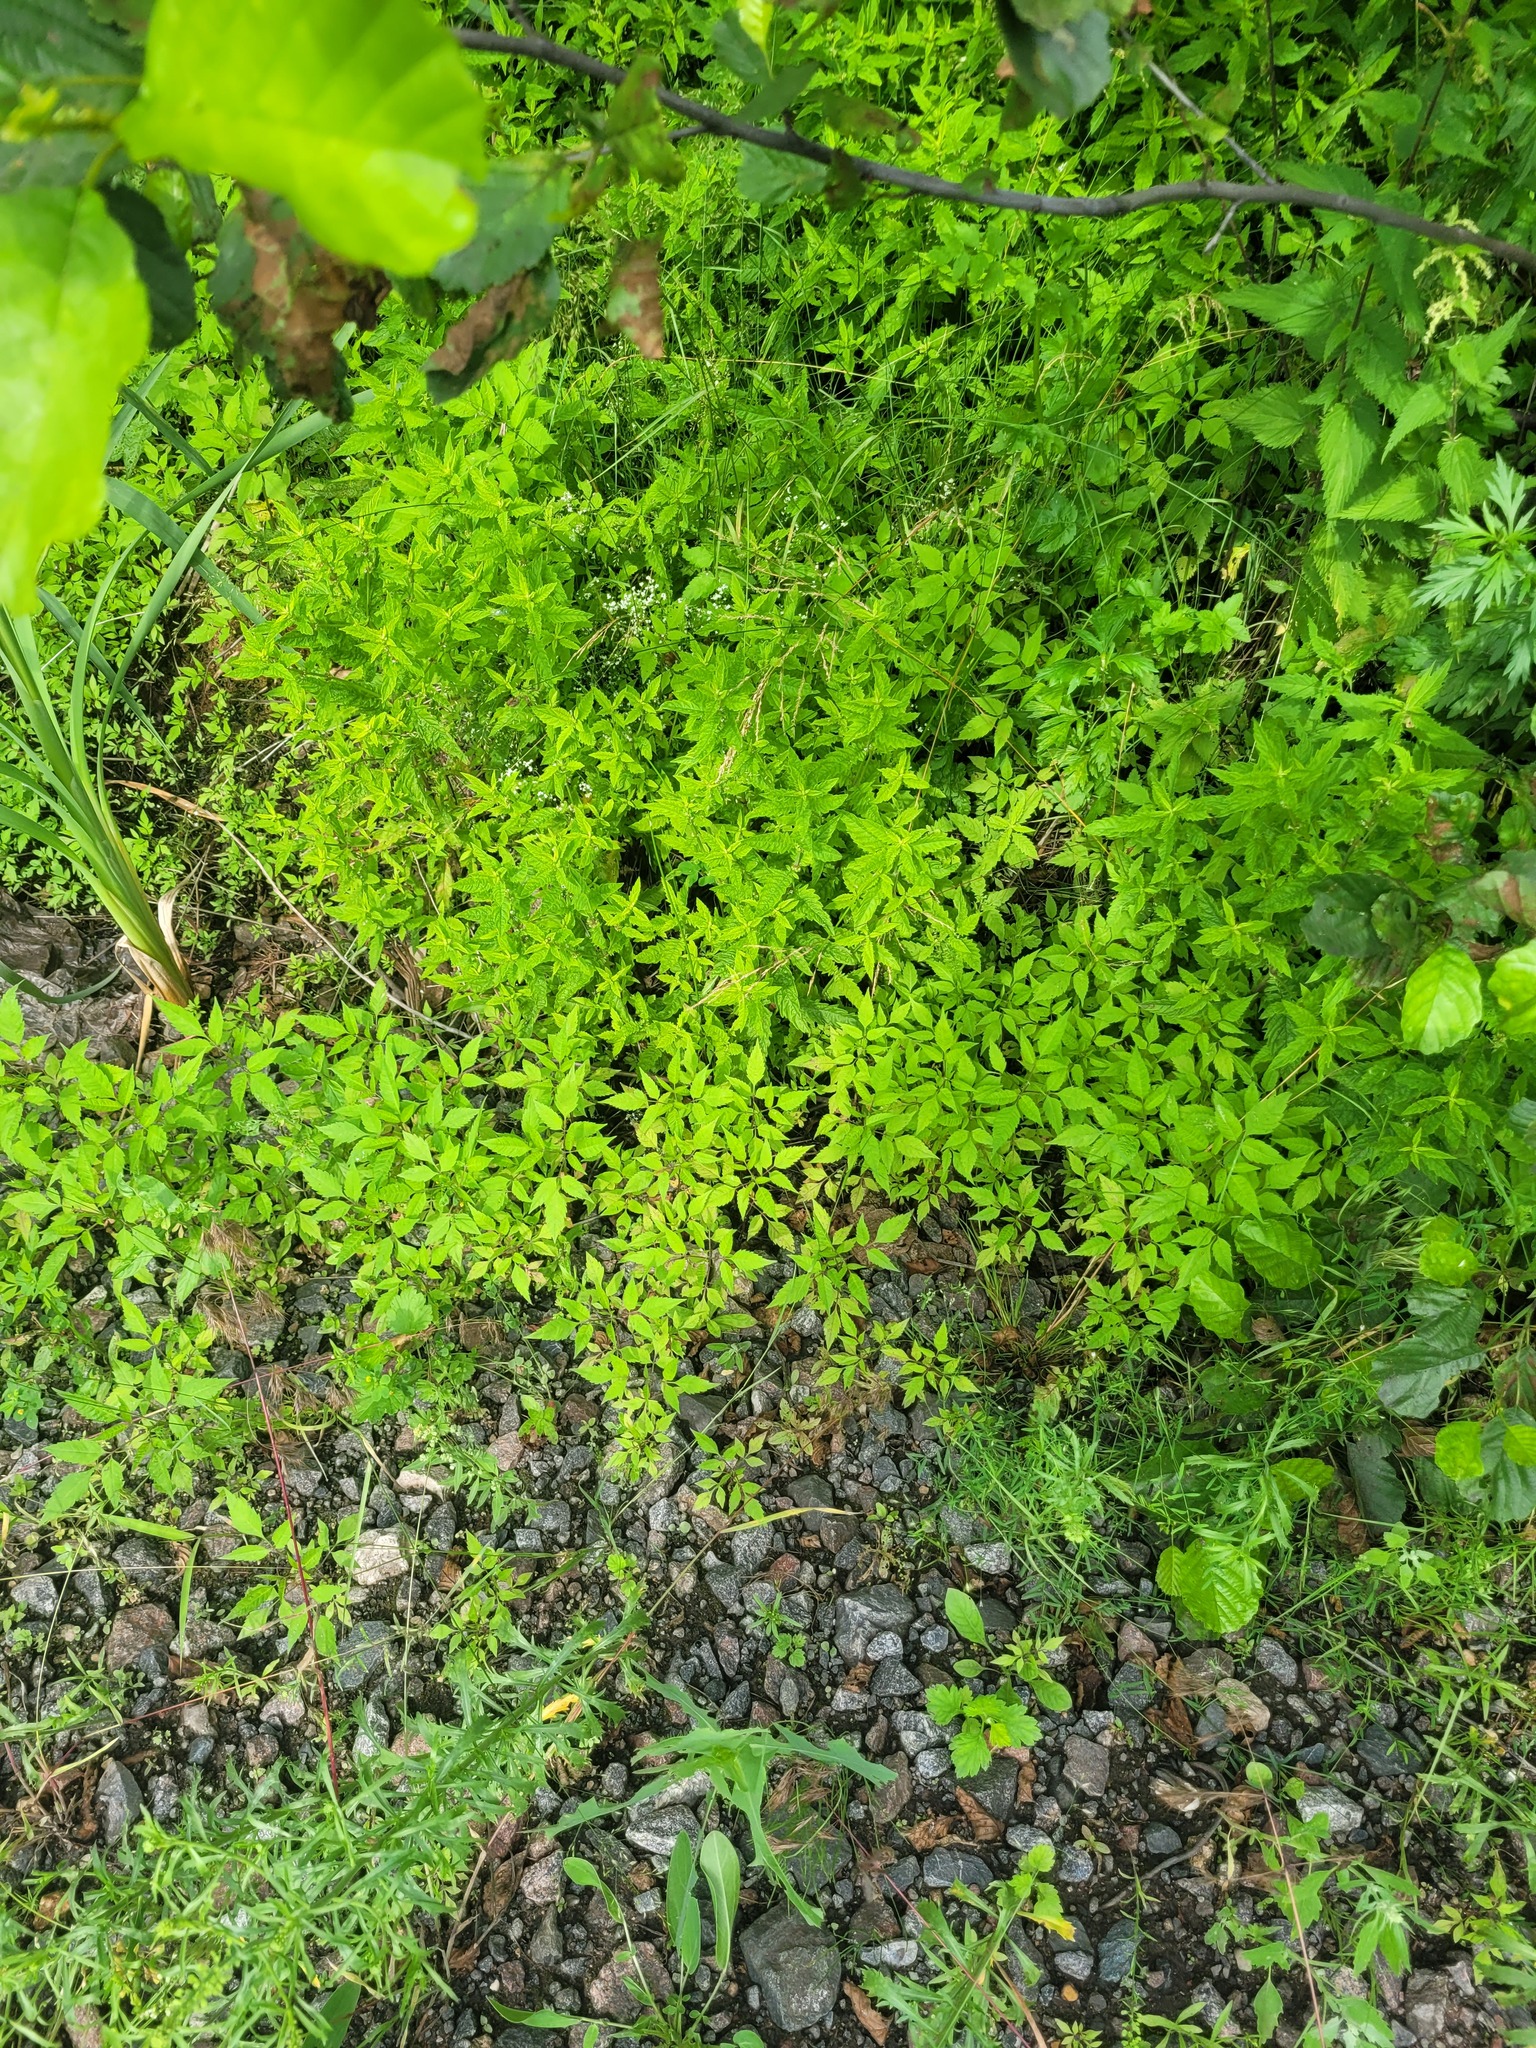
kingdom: Plantae
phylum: Tracheophyta
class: Magnoliopsida
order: Asterales
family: Asteraceae
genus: Bidens
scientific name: Bidens frondosa
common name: Beggarticks
